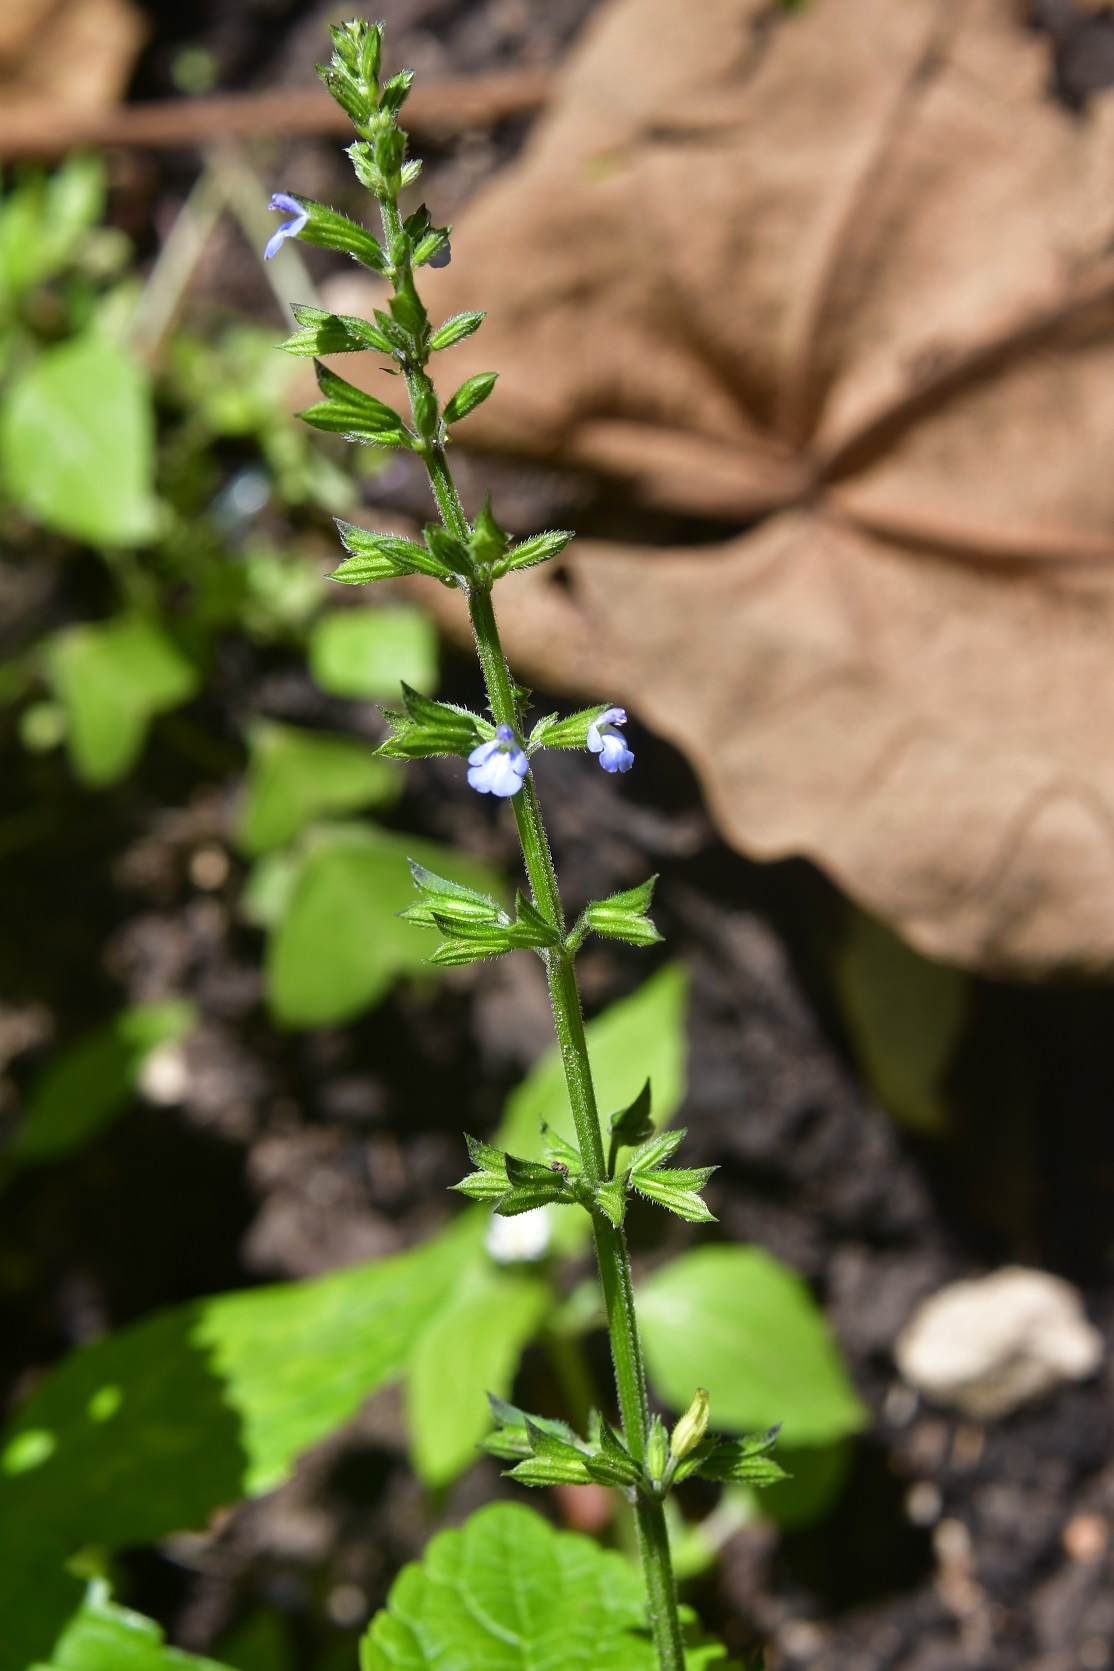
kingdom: Plantae
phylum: Tracheophyta
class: Magnoliopsida
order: Lamiales
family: Lamiaceae
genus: Salvia
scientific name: Salvia tiliifolia
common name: Lindenleaf sage
